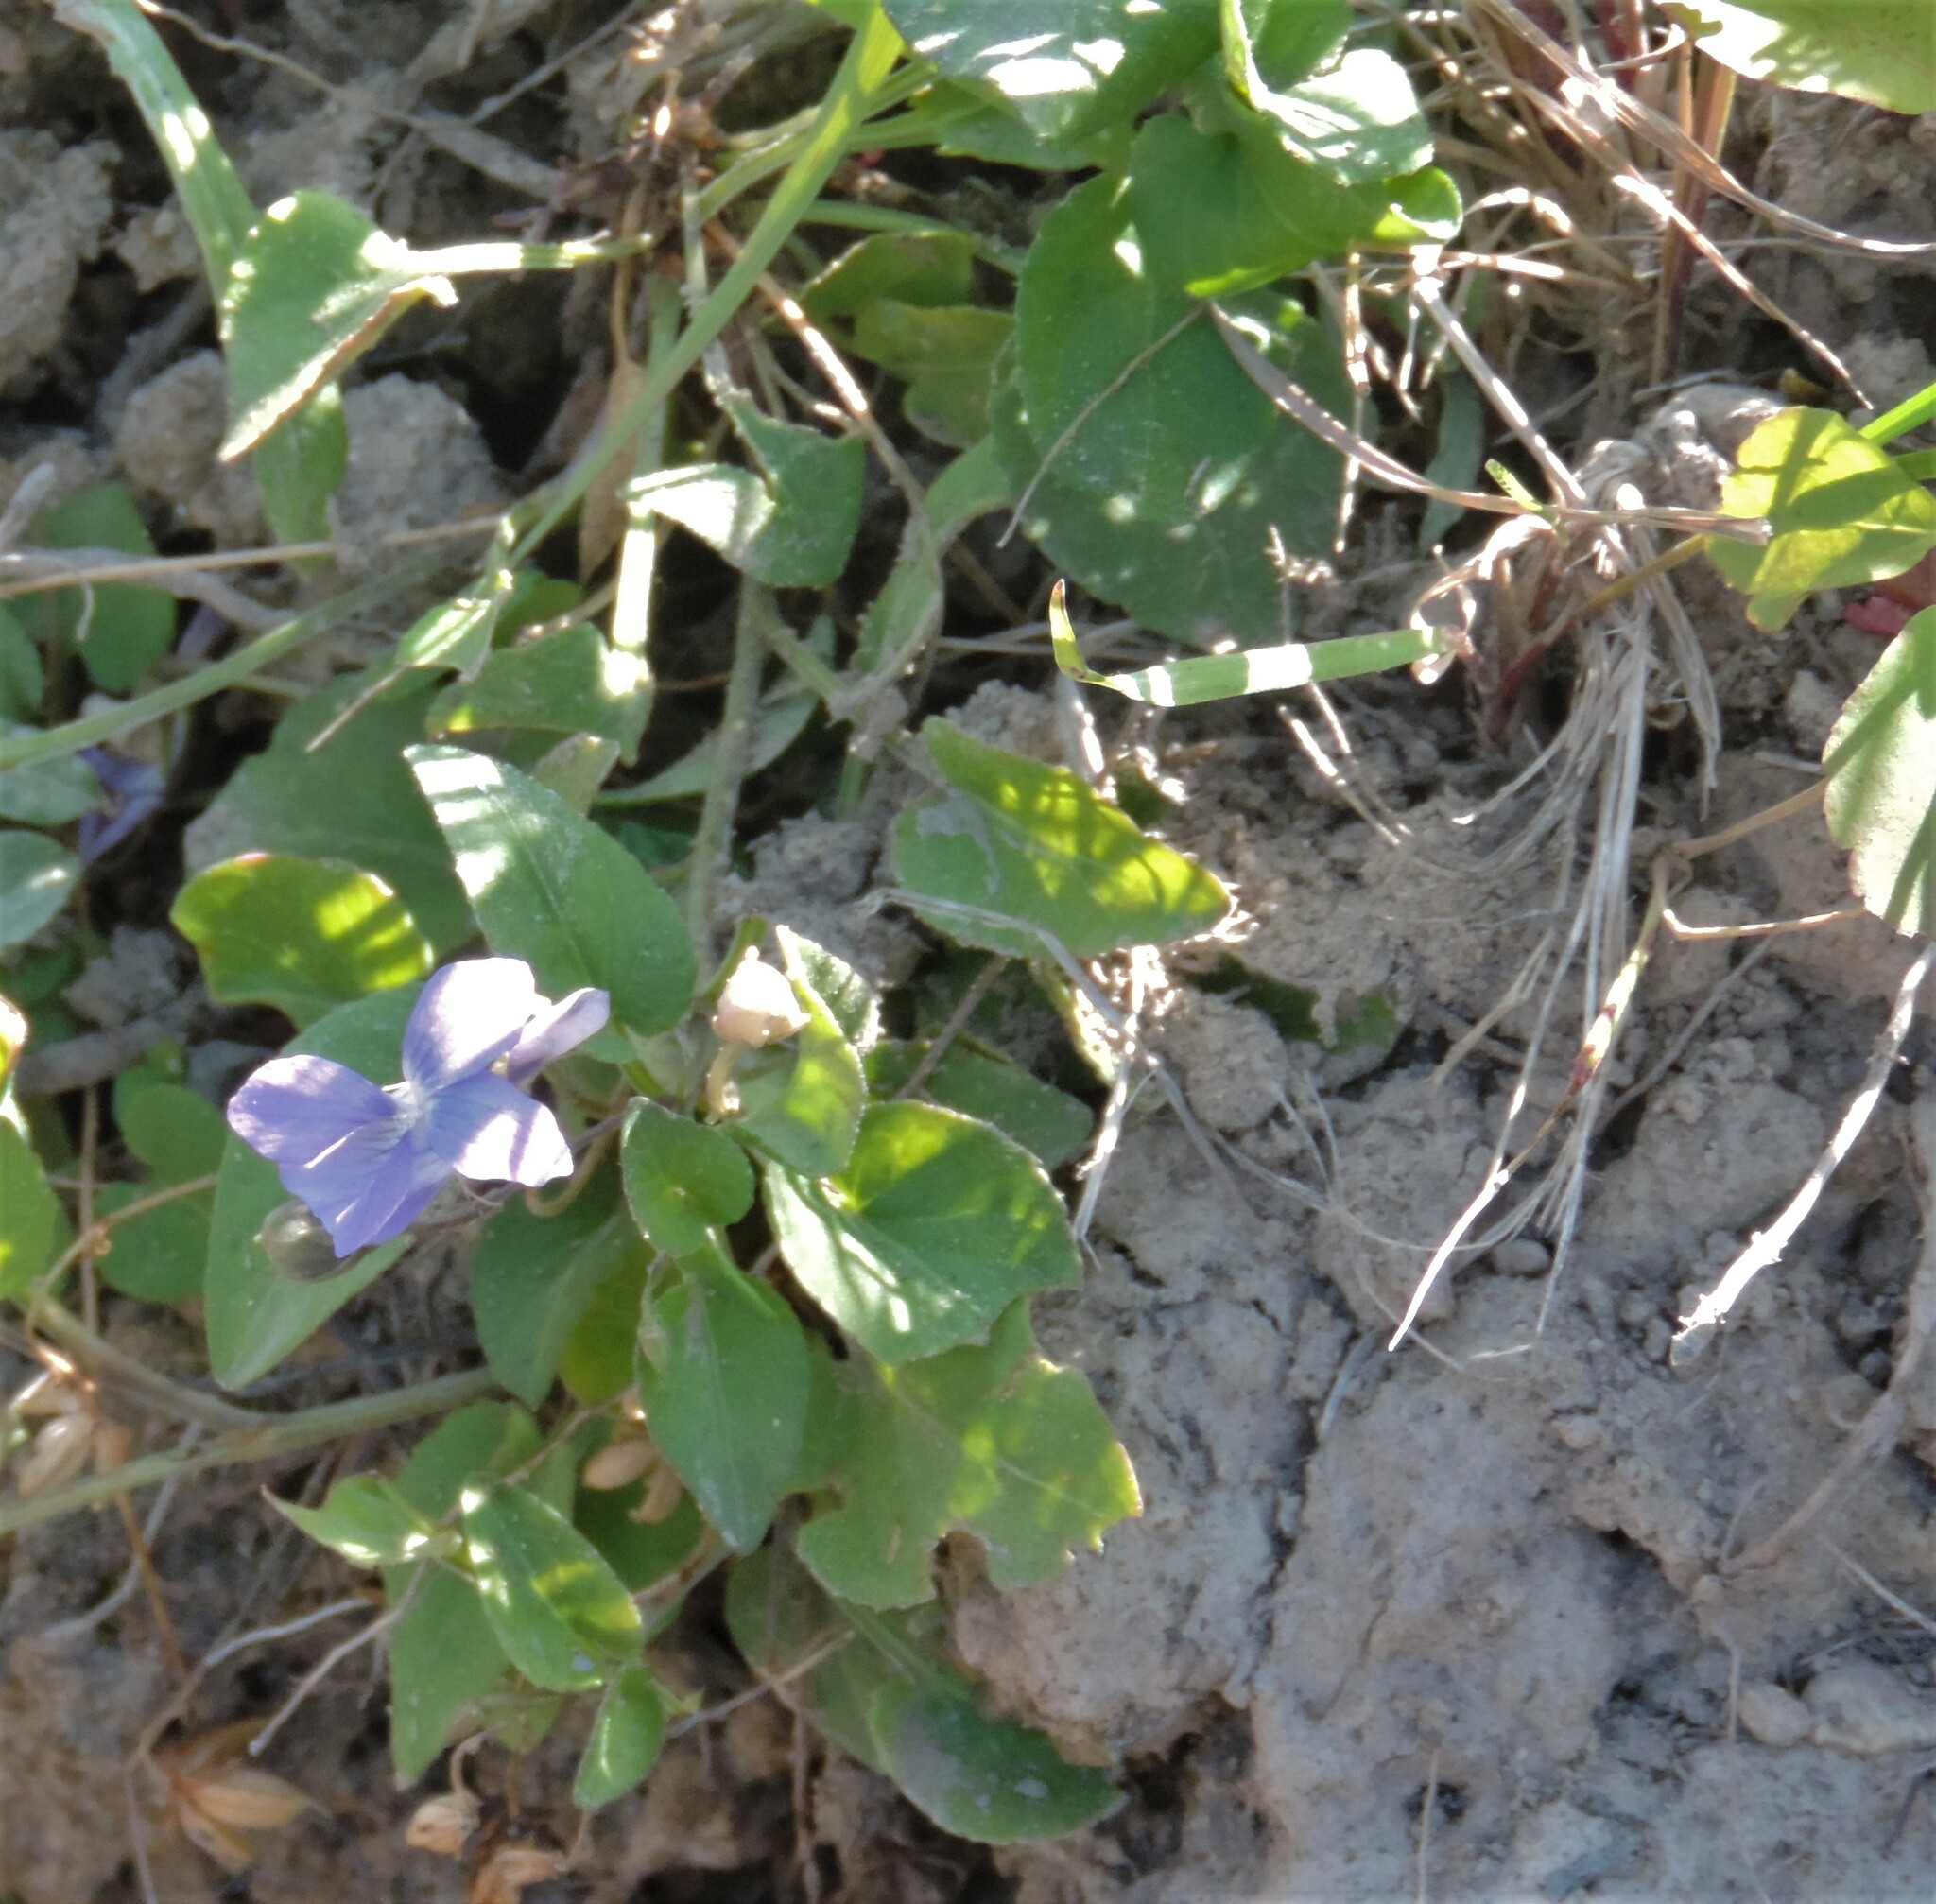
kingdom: Plantae
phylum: Tracheophyta
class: Magnoliopsida
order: Malpighiales
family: Violaceae
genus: Viola
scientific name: Viola adunca
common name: Sand violet
